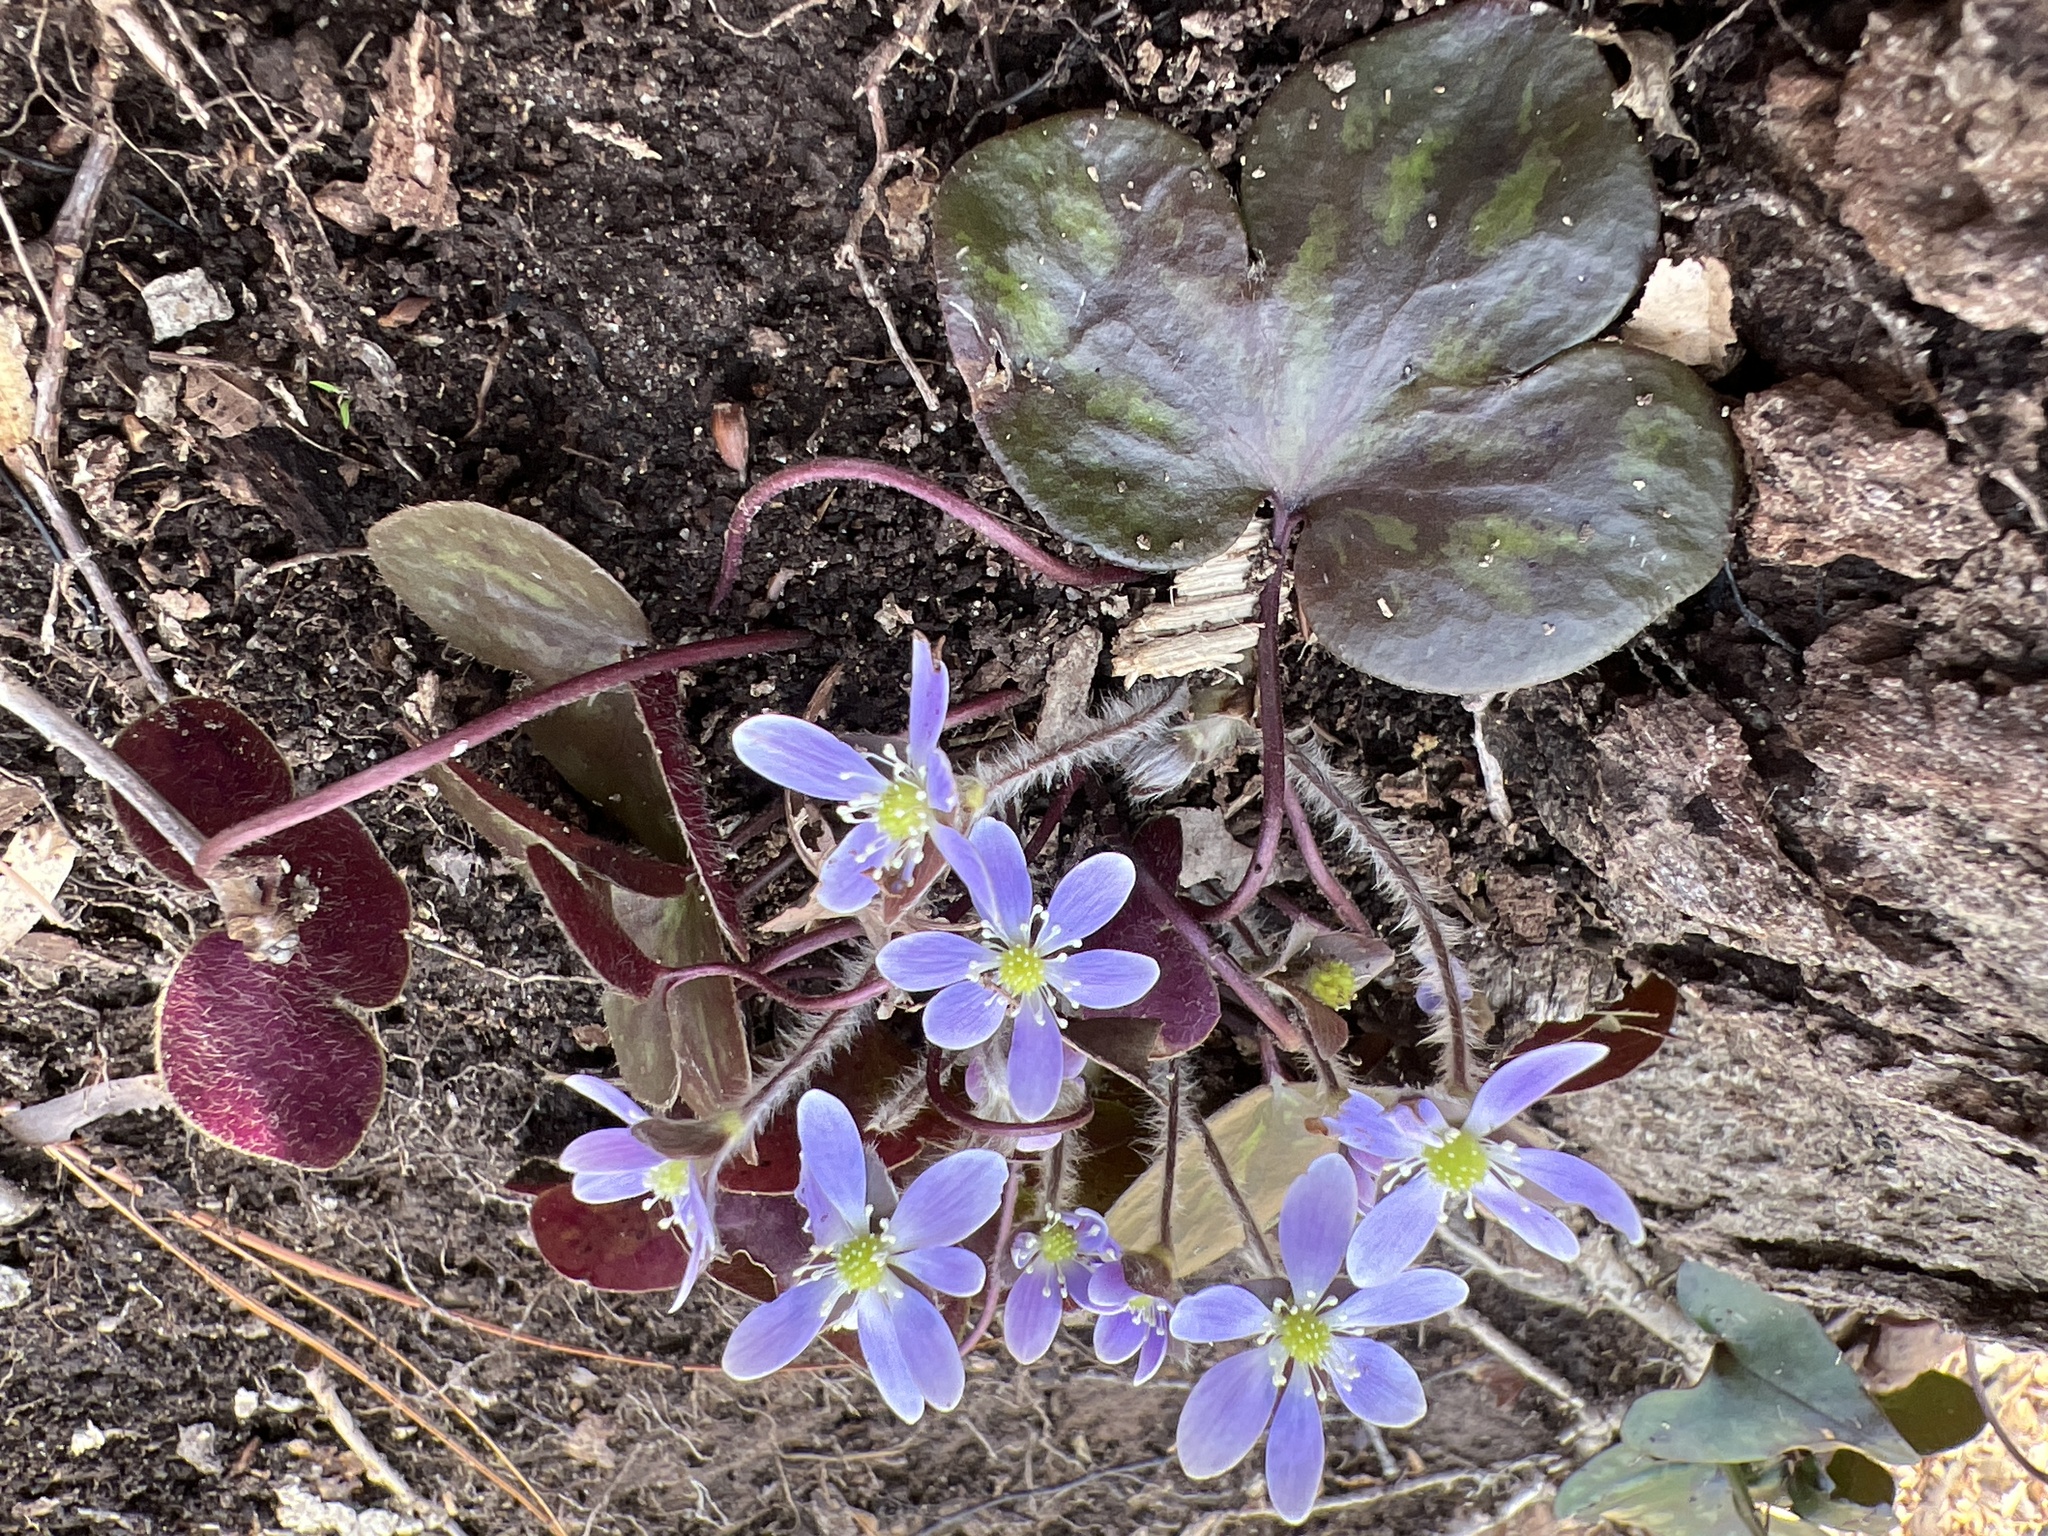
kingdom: Plantae
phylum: Tracheophyta
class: Magnoliopsida
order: Ranunculales
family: Ranunculaceae
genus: Hepatica
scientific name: Hepatica americana
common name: American hepatica
